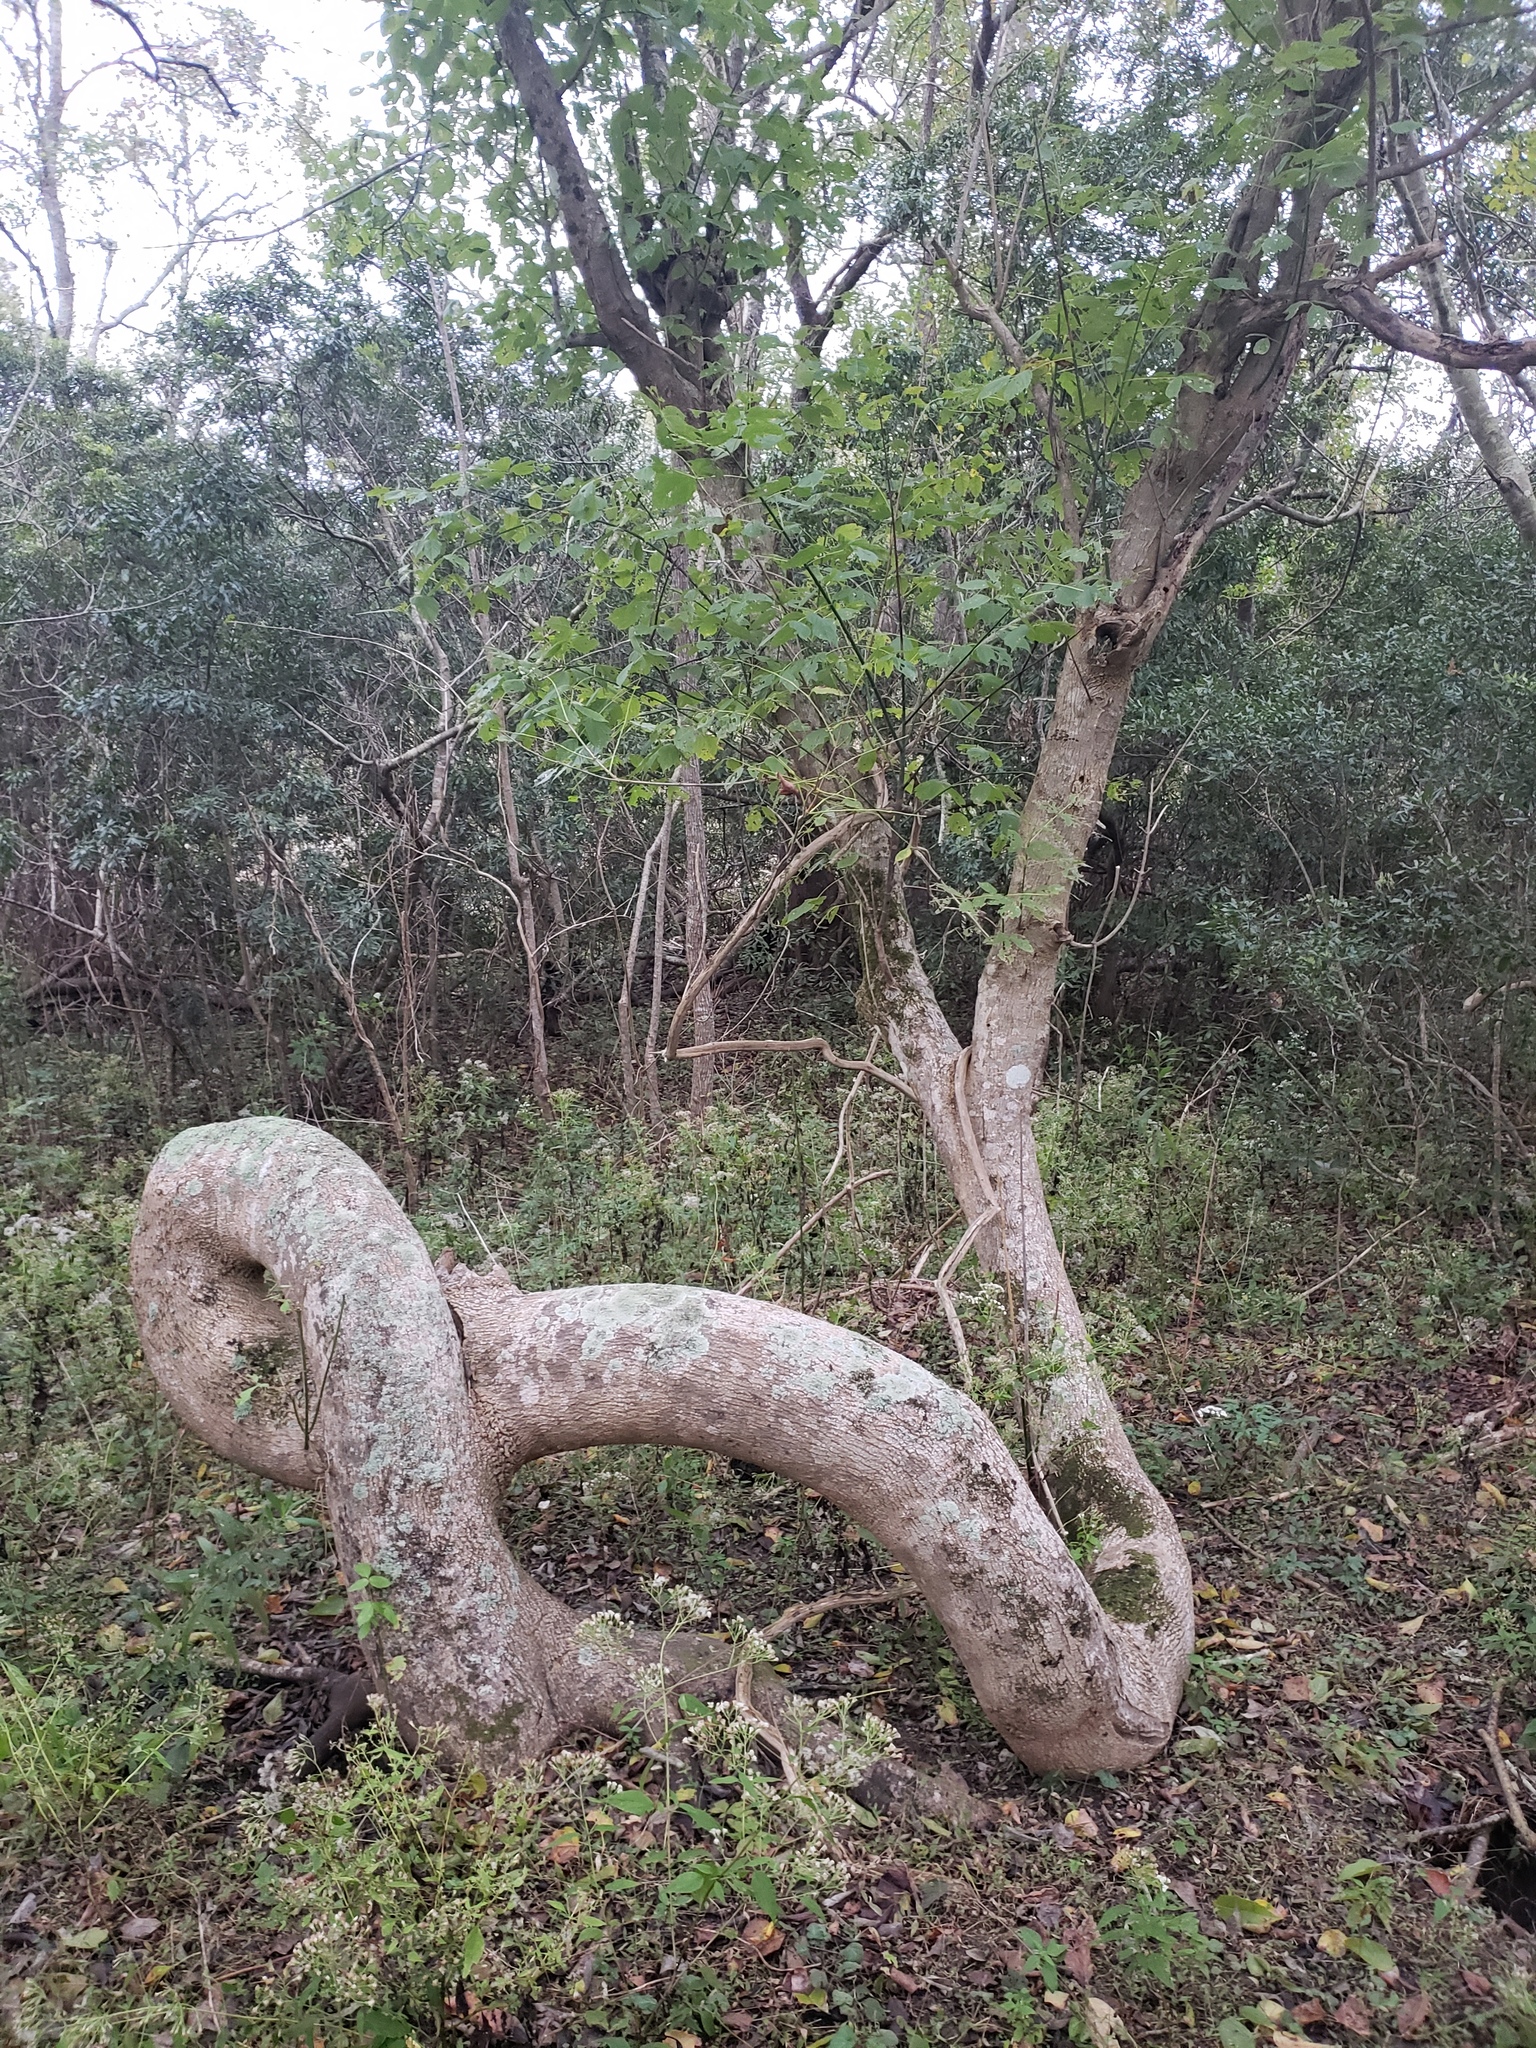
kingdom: Plantae
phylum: Tracheophyta
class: Magnoliopsida
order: Sapindales
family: Sapindaceae
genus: Acer
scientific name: Acer negundo
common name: Ashleaf maple
